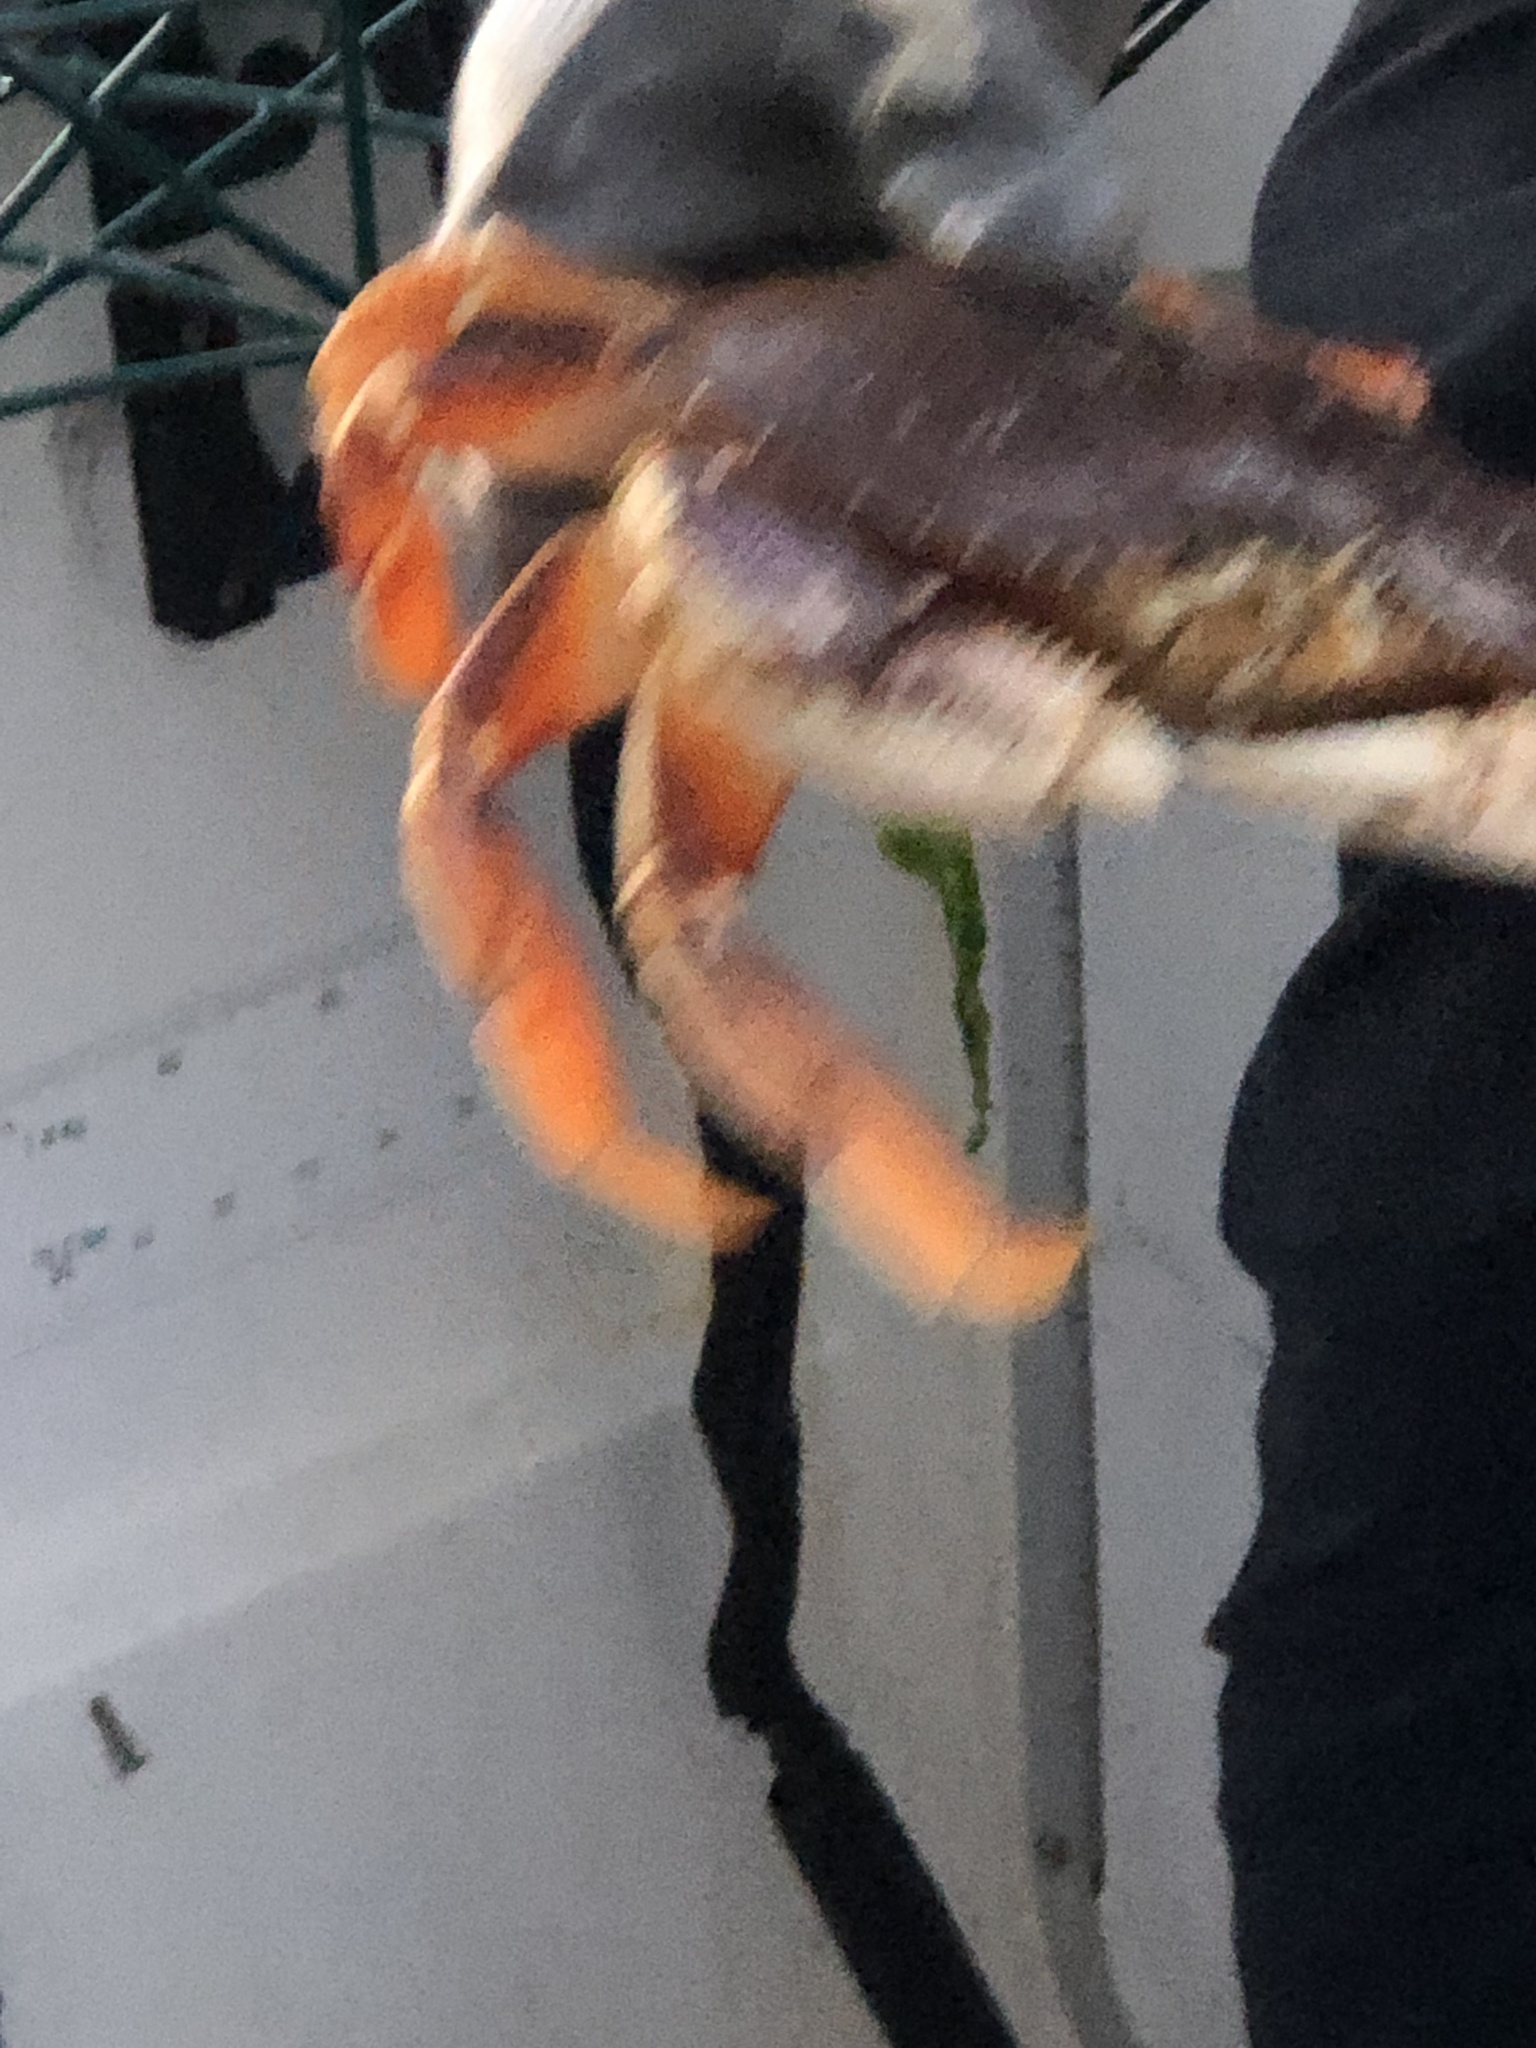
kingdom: Animalia
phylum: Arthropoda
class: Malacostraca
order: Decapoda
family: Cancridae
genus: Metacarcinus
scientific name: Metacarcinus magister
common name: Californian crab
